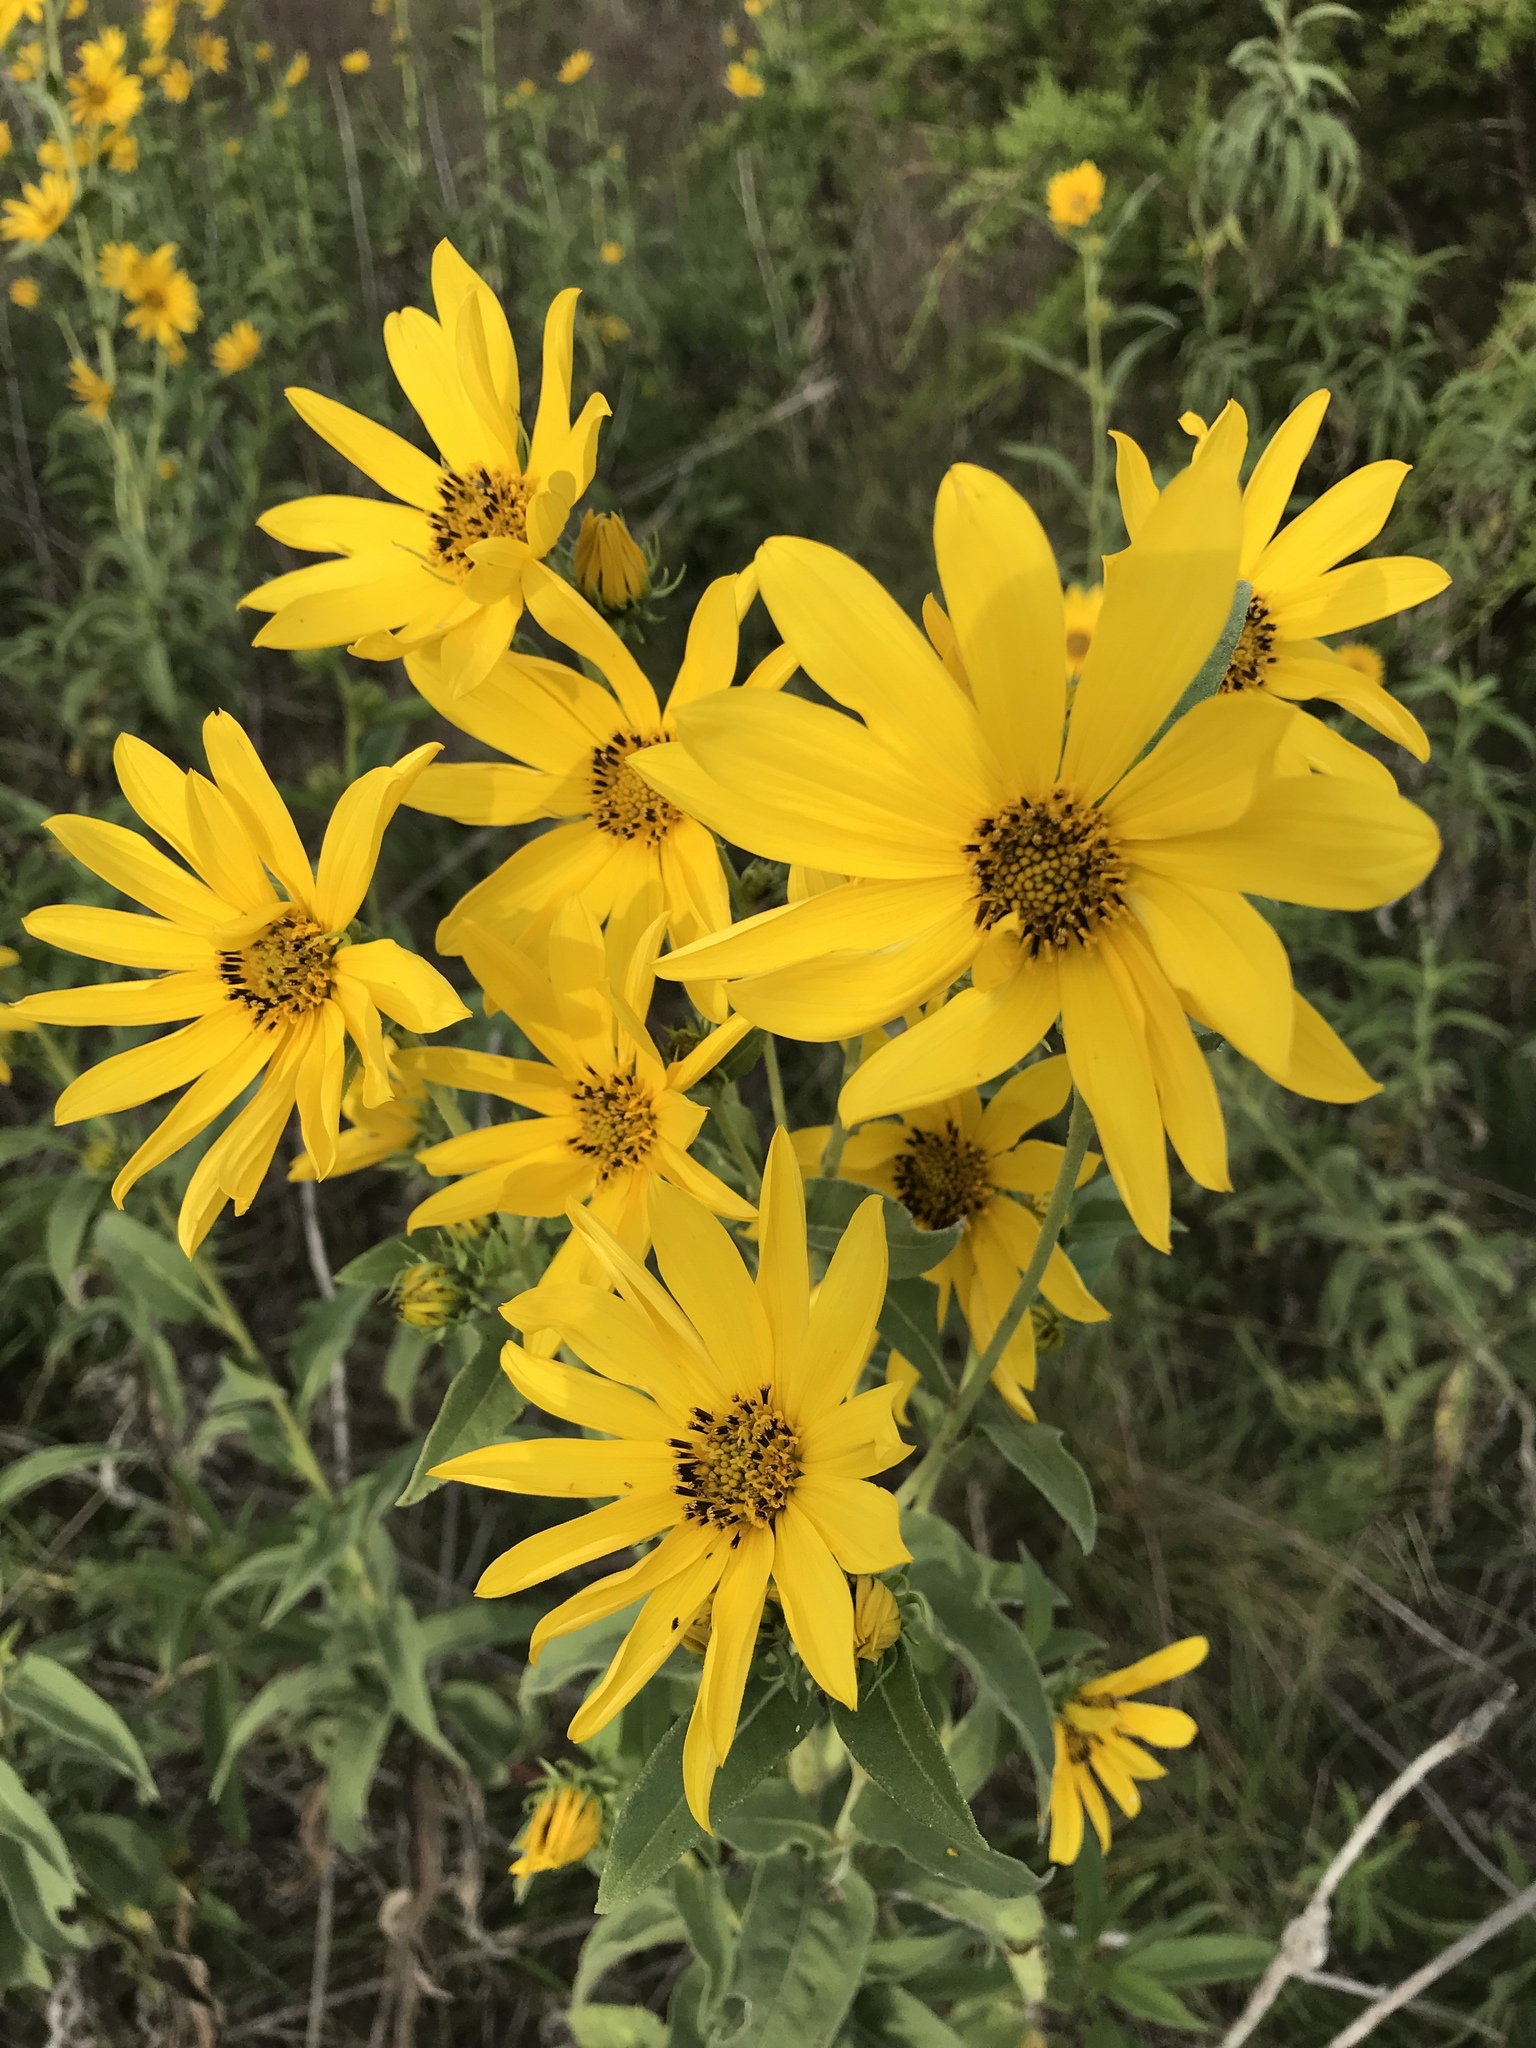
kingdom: Plantae
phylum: Tracheophyta
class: Magnoliopsida
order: Asterales
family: Asteraceae
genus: Helianthus
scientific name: Helianthus maximiliani
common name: Maximilian's sunflower
